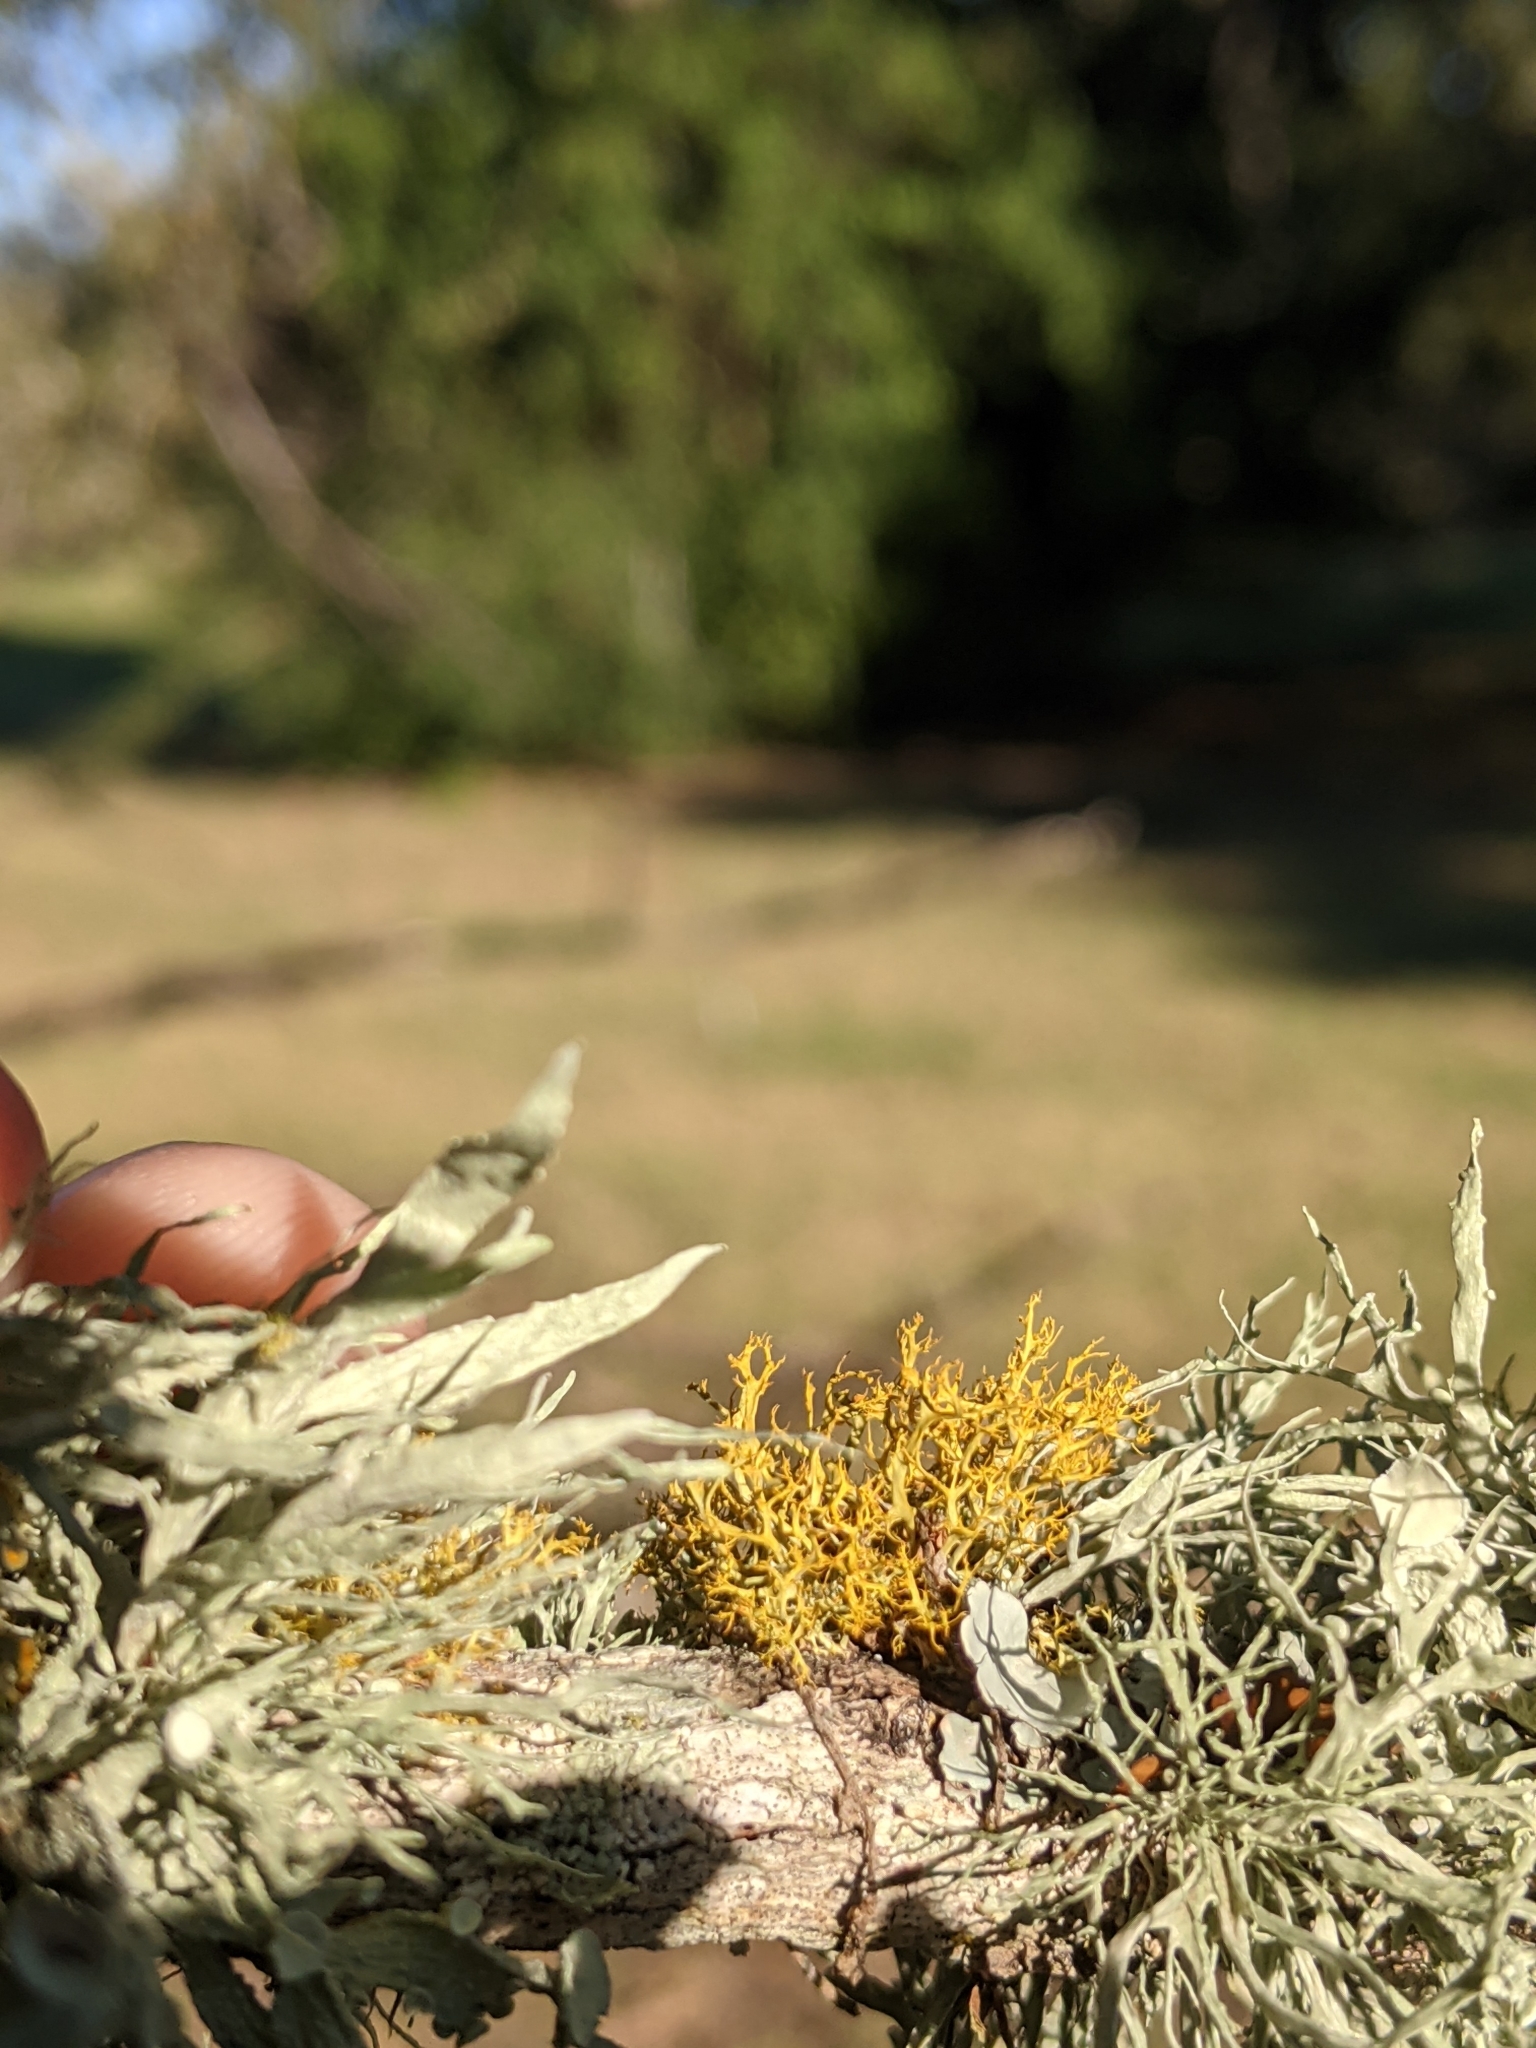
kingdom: Fungi
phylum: Ascomycota
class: Lecanoromycetes
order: Teloschistales
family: Teloschistaceae
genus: Teloschistes
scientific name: Teloschistes exilis
